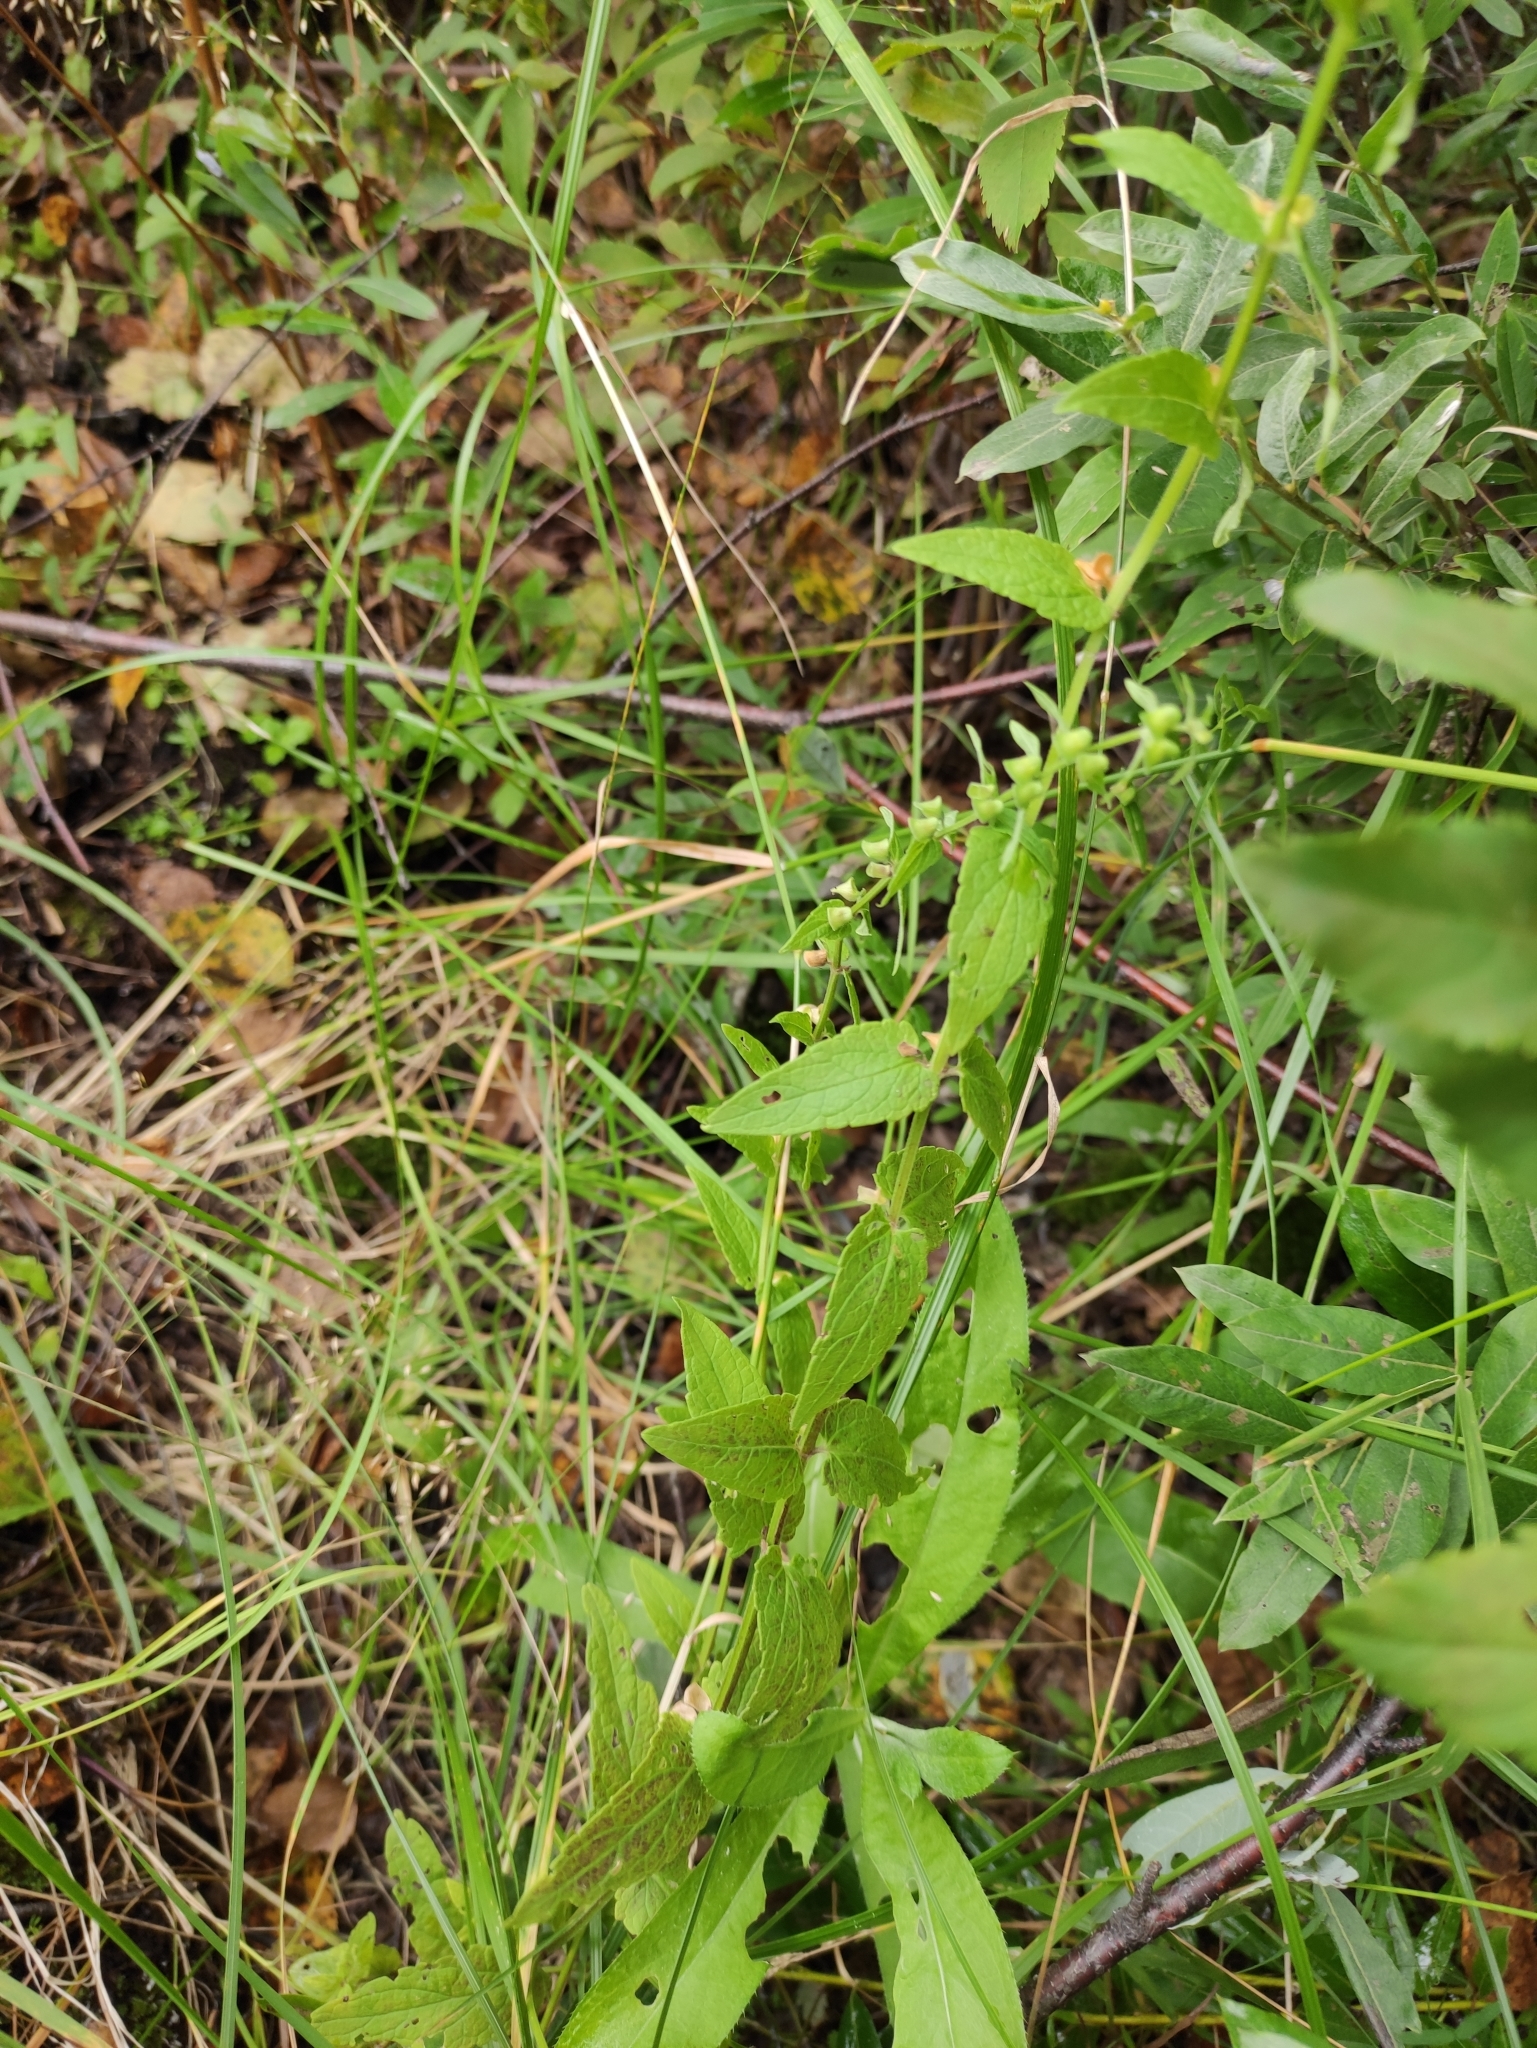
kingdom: Plantae
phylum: Tracheophyta
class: Magnoliopsida
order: Lamiales
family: Lamiaceae
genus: Scutellaria
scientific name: Scutellaria galericulata
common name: Skullcap
